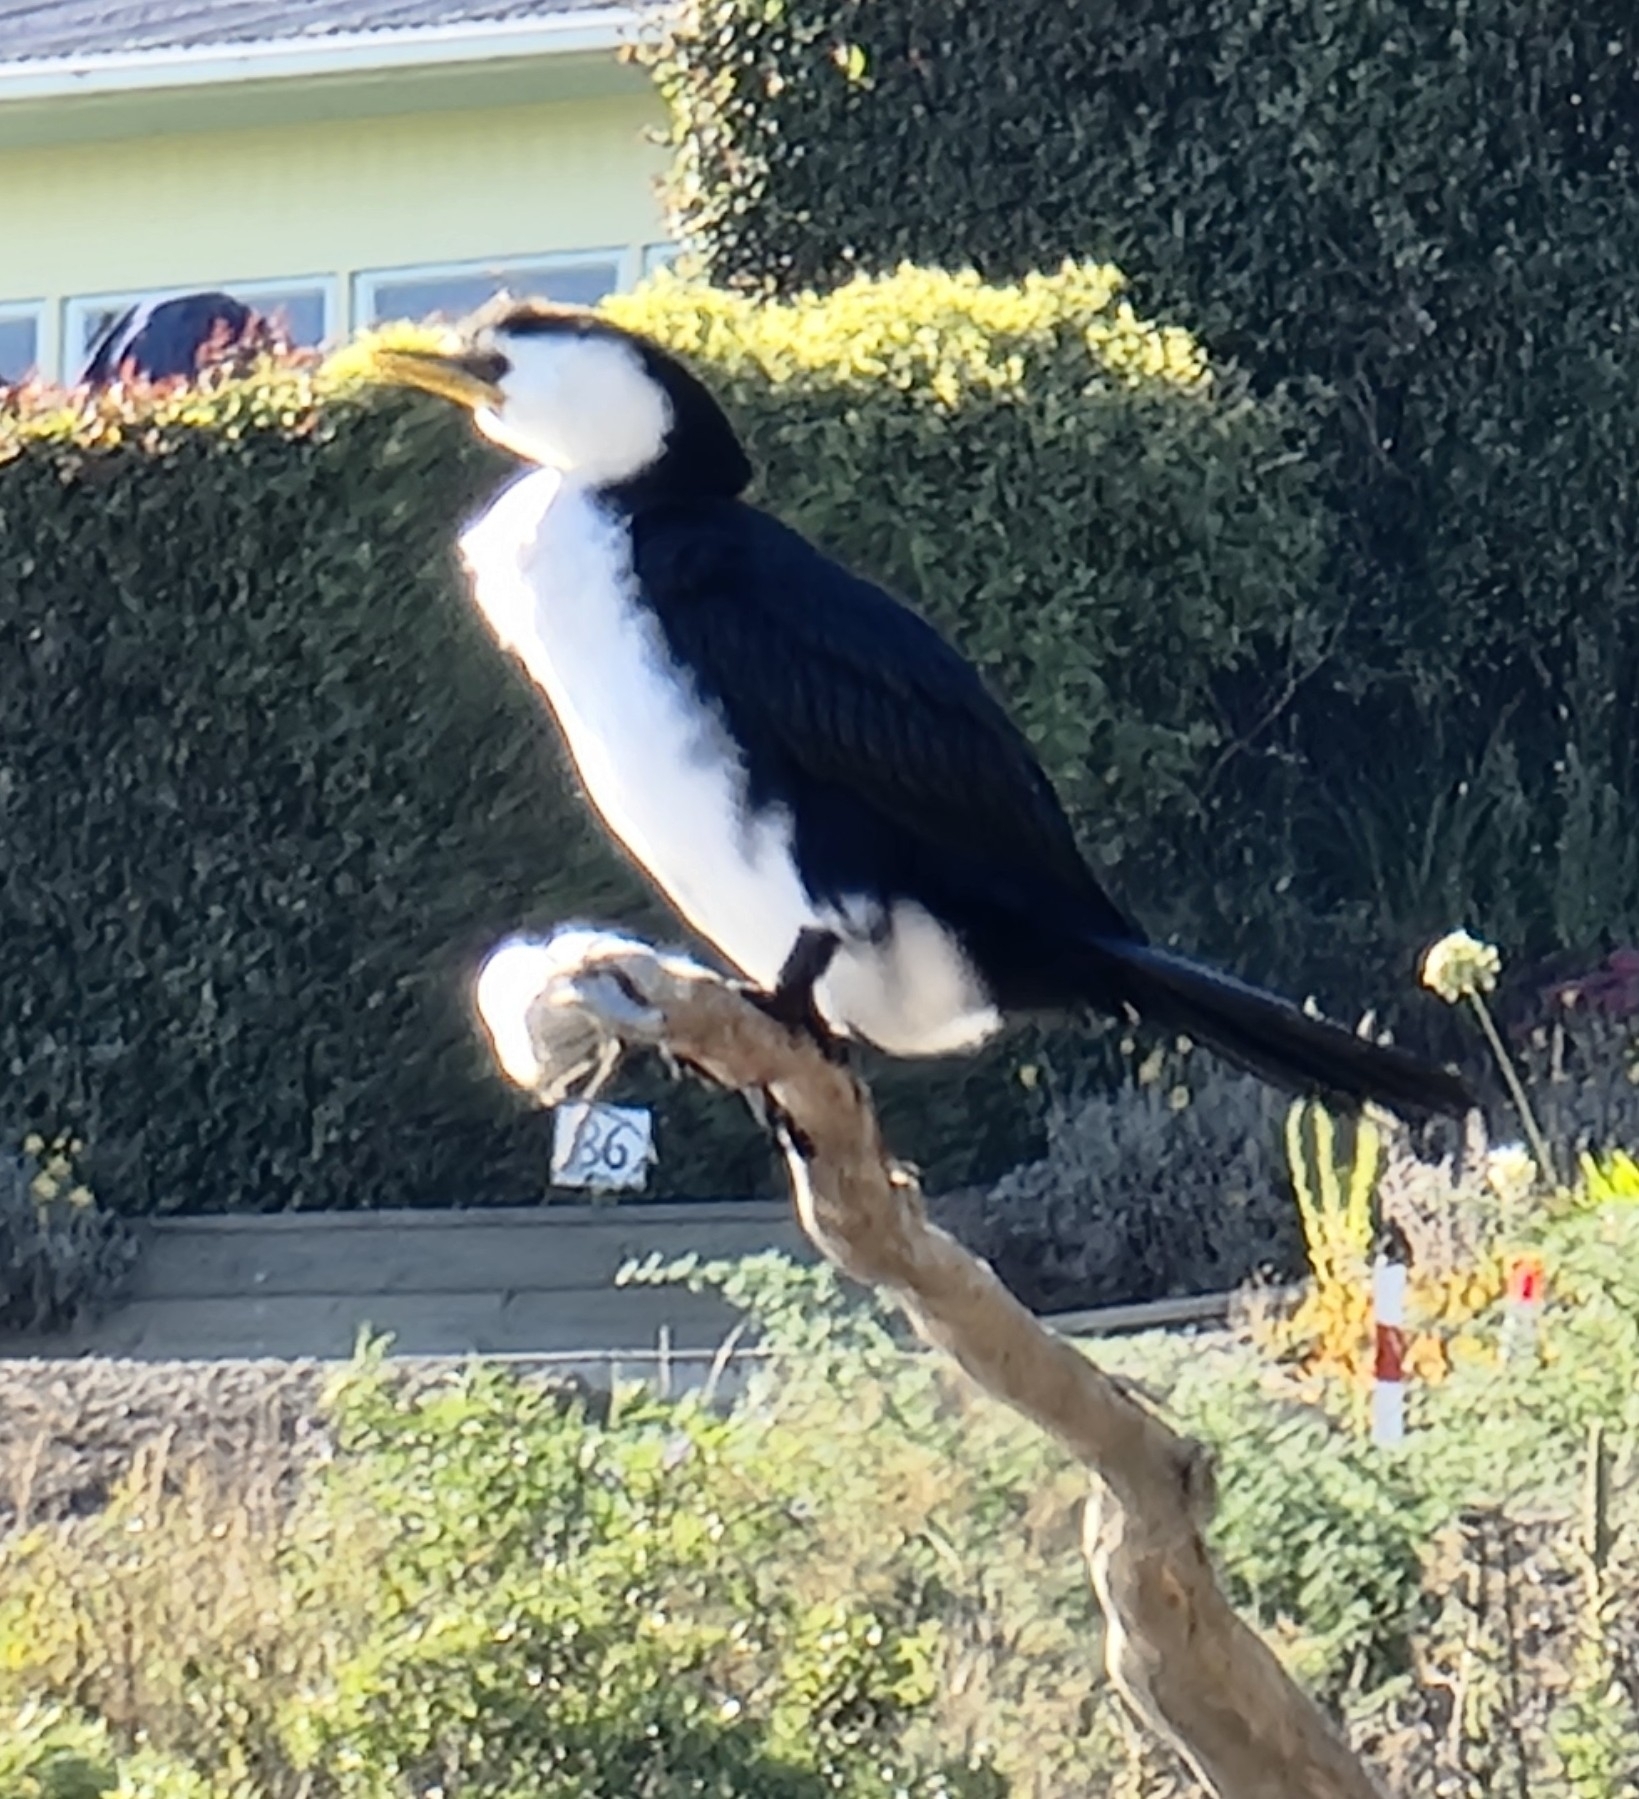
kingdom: Animalia
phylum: Chordata
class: Aves
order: Suliformes
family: Phalacrocoracidae
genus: Microcarbo
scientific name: Microcarbo melanoleucos
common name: Little pied cormorant
